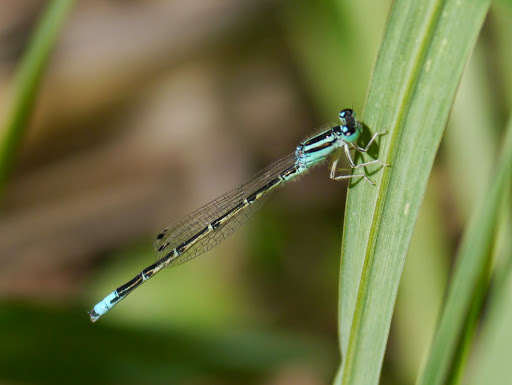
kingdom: Animalia
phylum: Arthropoda
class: Insecta
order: Odonata
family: Coenagrionidae
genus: Ischnura
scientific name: Ischnura demorsa
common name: Mexican forktail
